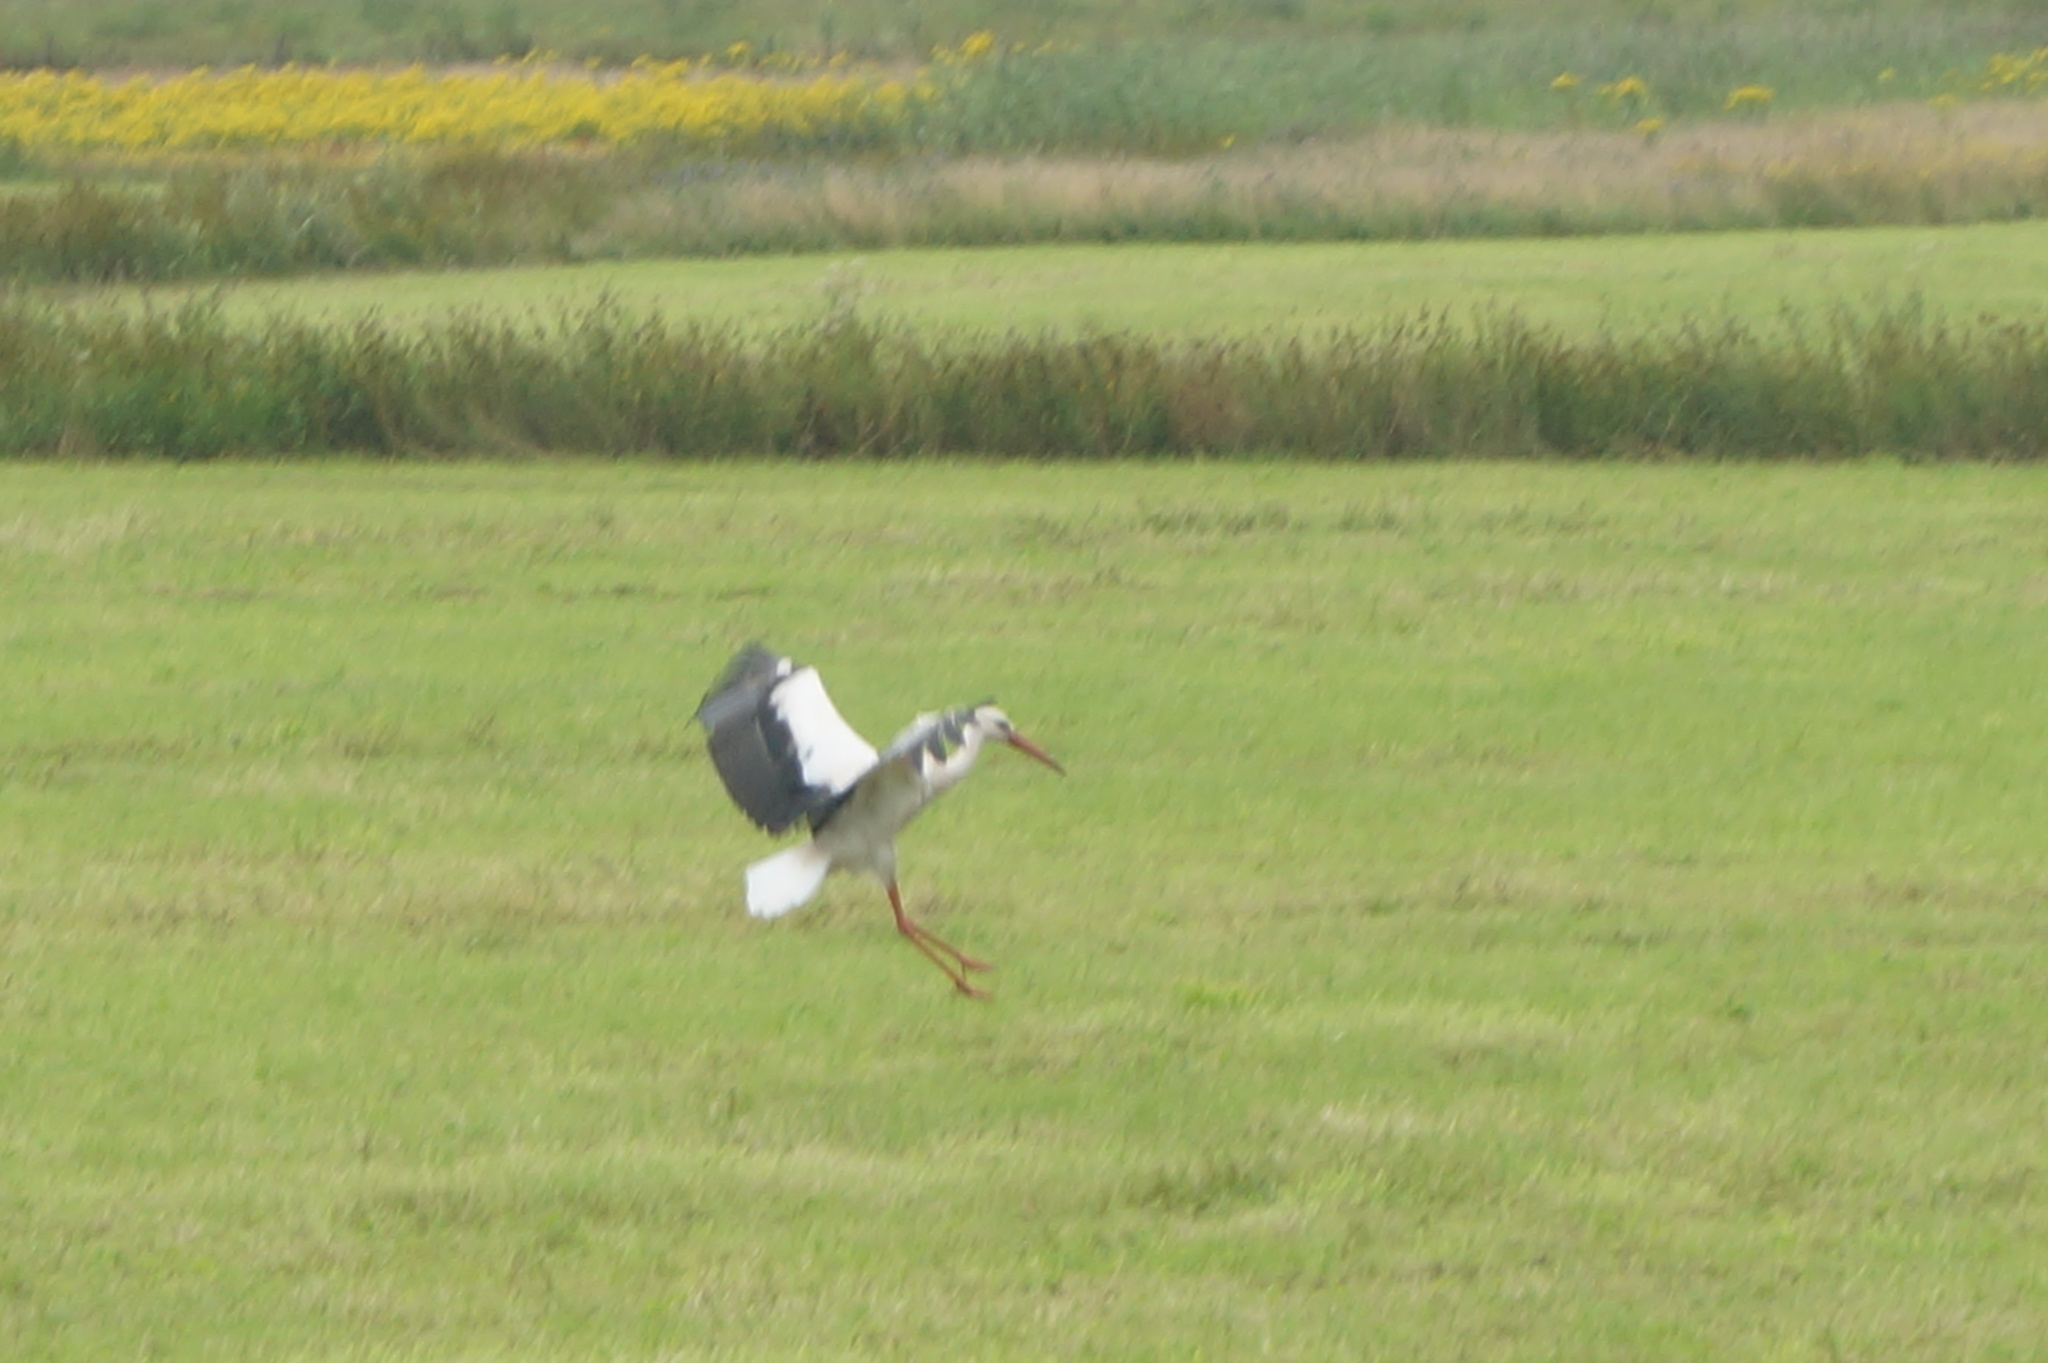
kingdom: Animalia
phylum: Chordata
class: Aves
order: Ciconiiformes
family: Ciconiidae
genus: Ciconia
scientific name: Ciconia ciconia
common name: White stork
